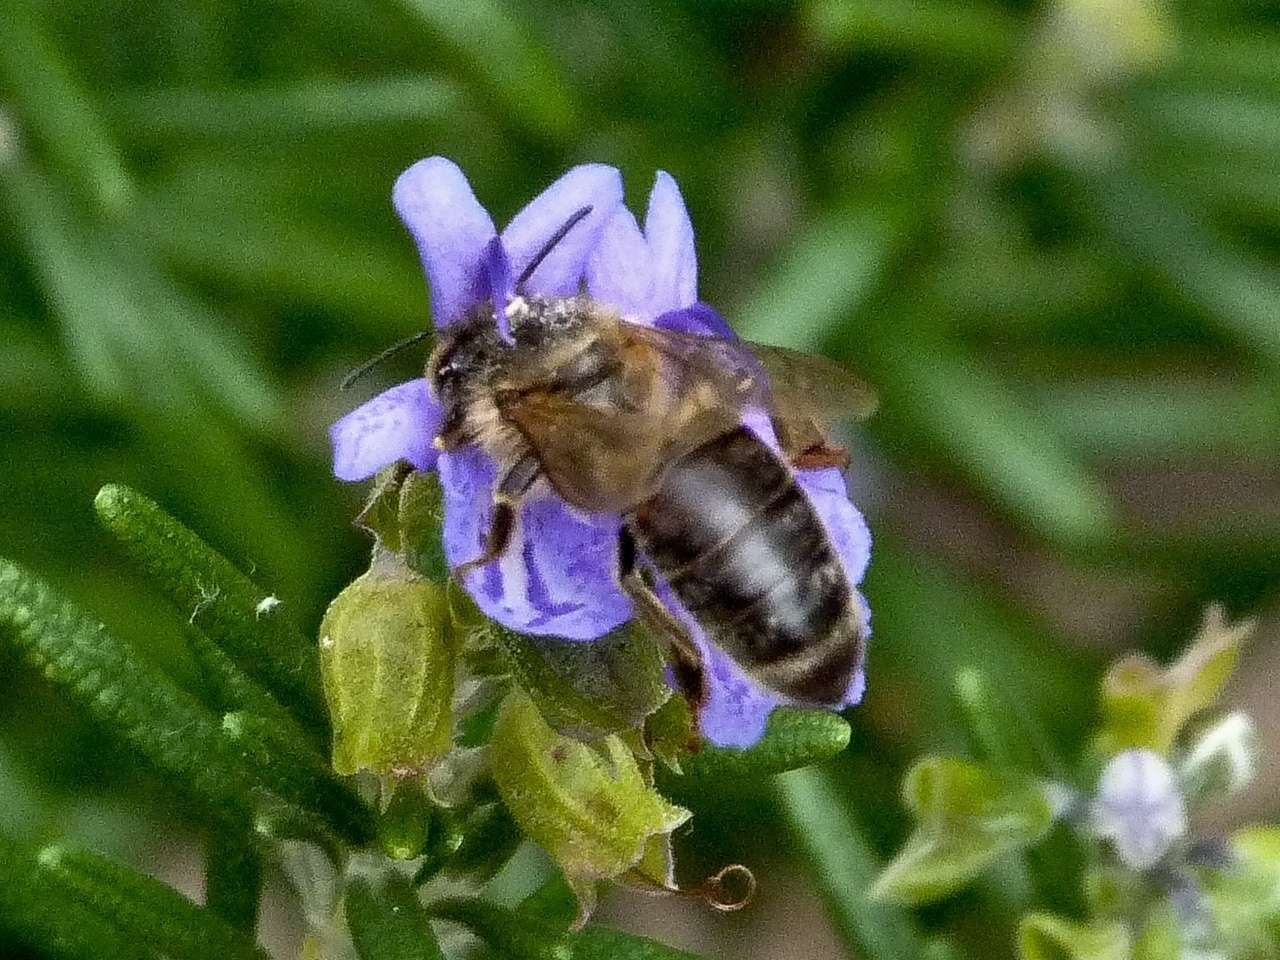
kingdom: Animalia
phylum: Arthropoda
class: Insecta
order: Hymenoptera
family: Apidae
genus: Apis
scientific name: Apis mellifera
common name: Honey bee
